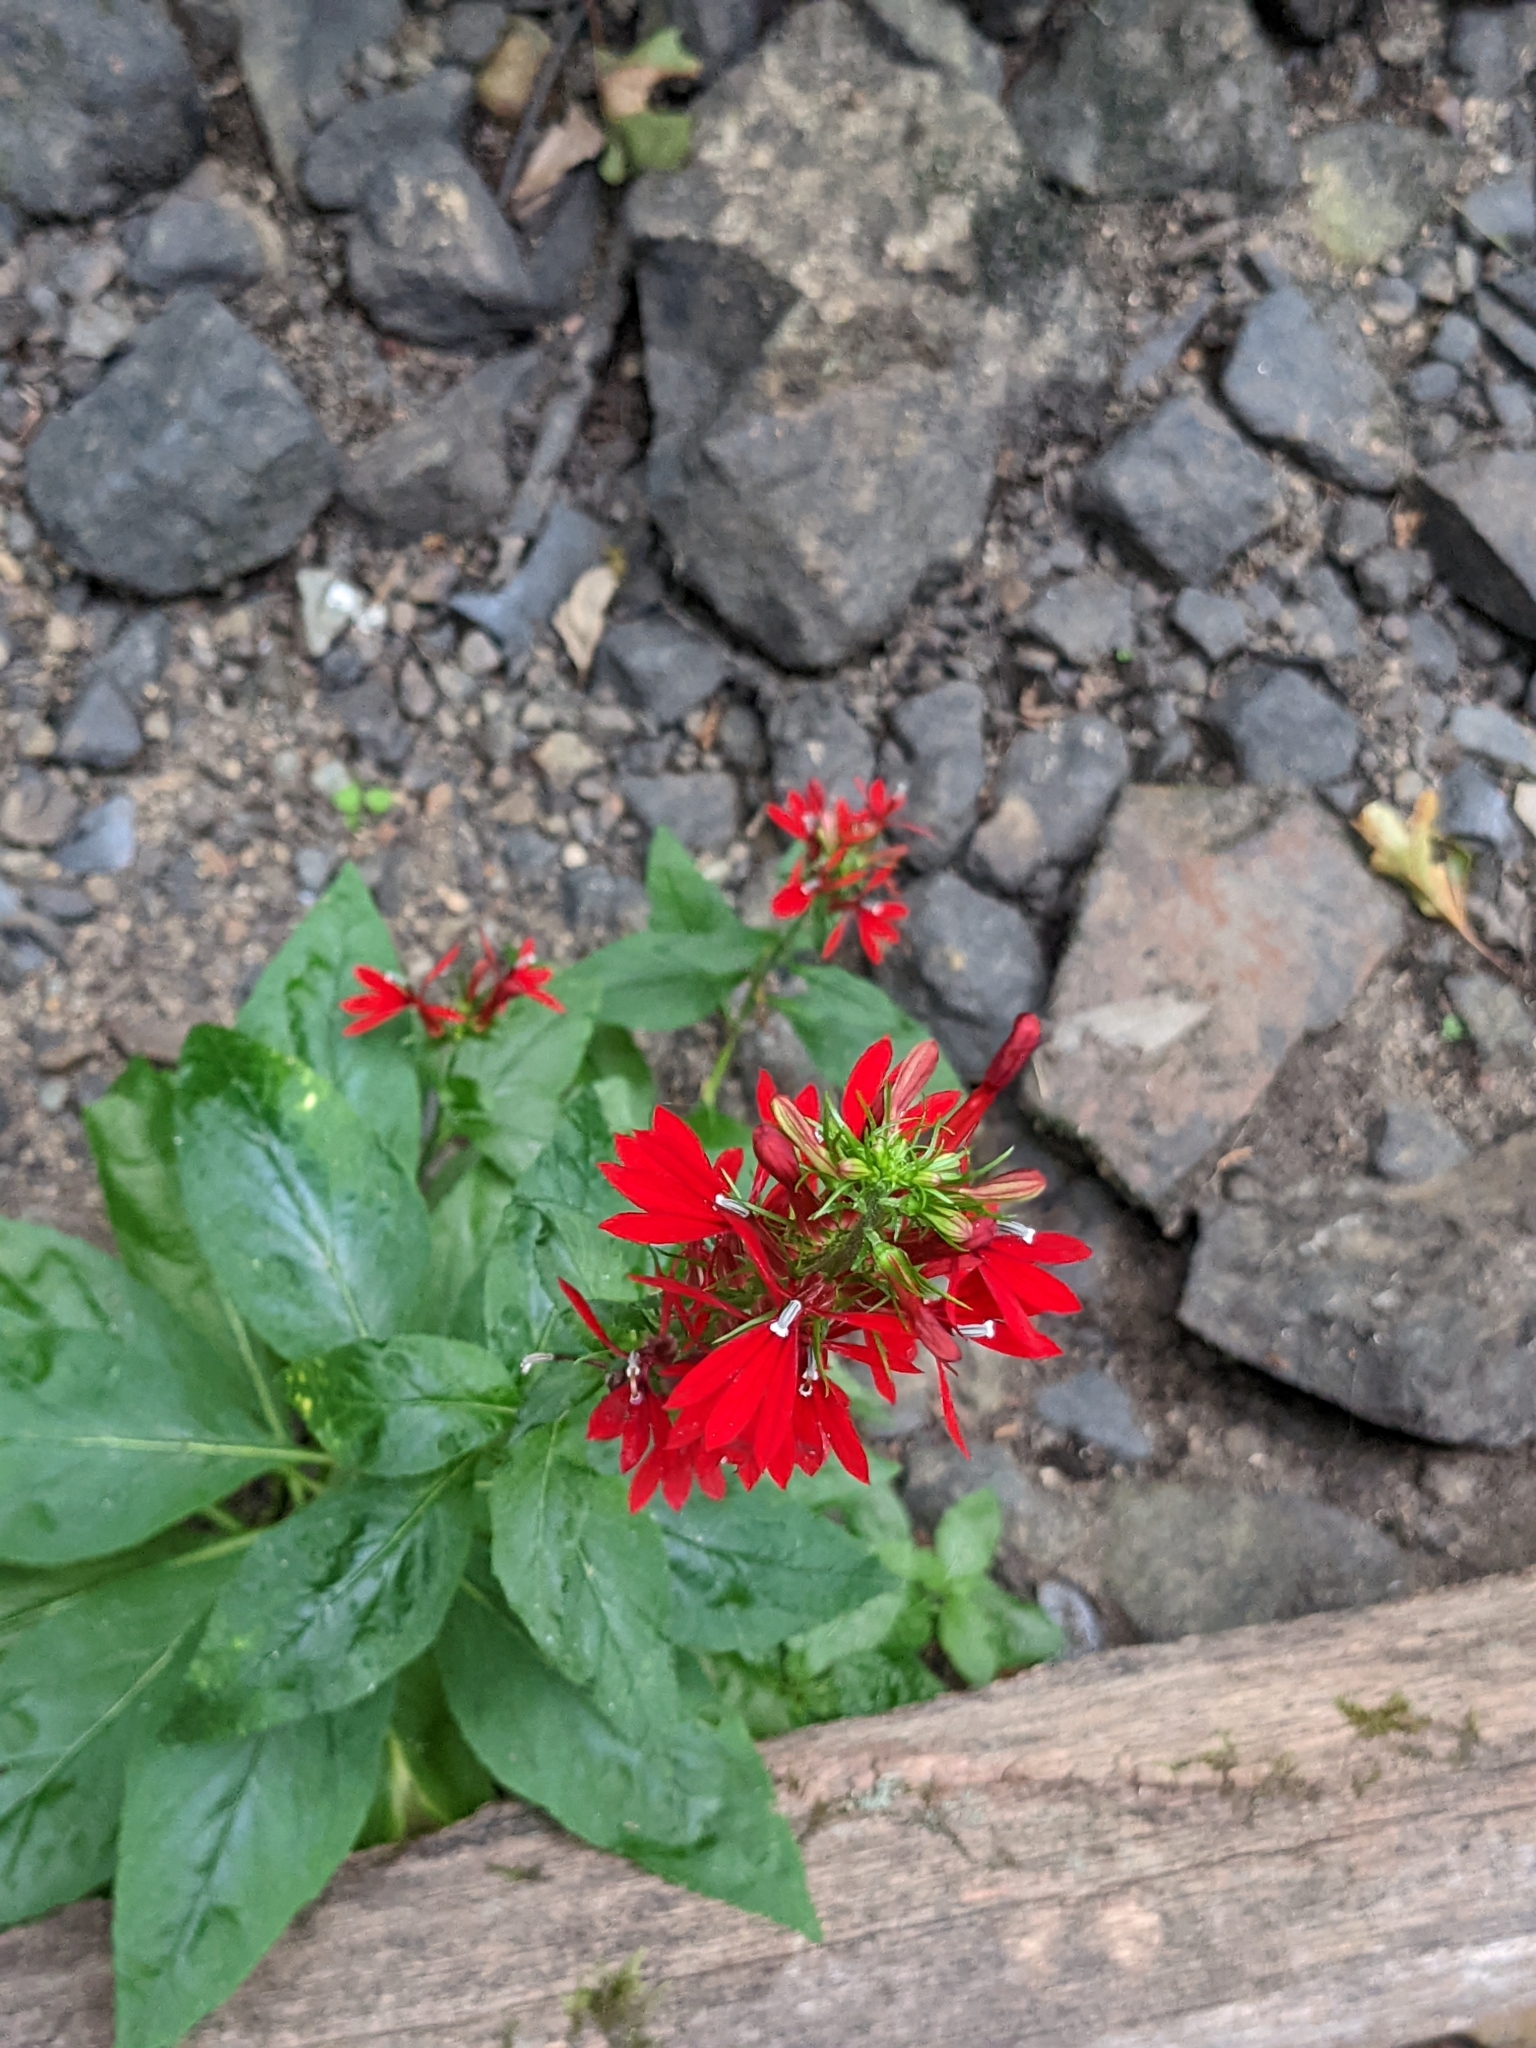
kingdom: Plantae
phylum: Tracheophyta
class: Magnoliopsida
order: Asterales
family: Campanulaceae
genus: Lobelia
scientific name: Lobelia cardinalis
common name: Cardinal flower
